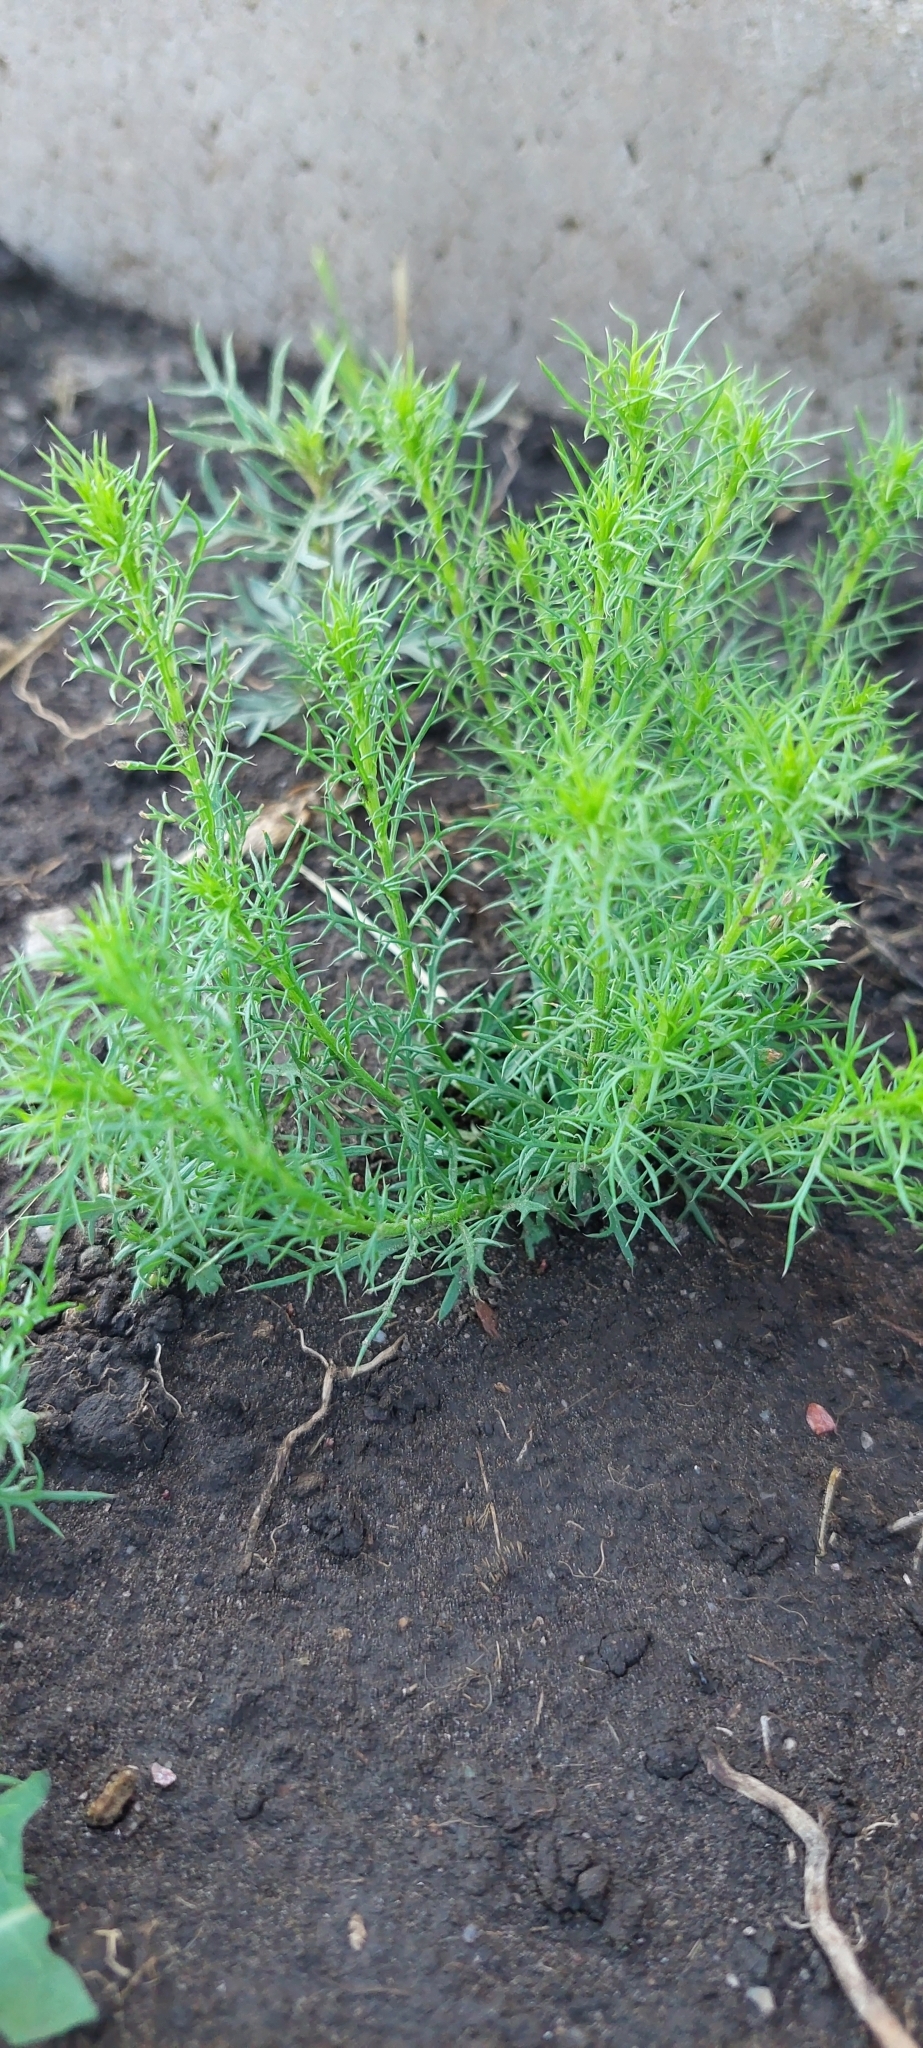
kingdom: Plantae
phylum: Tracheophyta
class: Magnoliopsida
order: Asterales
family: Asteraceae
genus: Baccharis
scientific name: Baccharis ulicina
